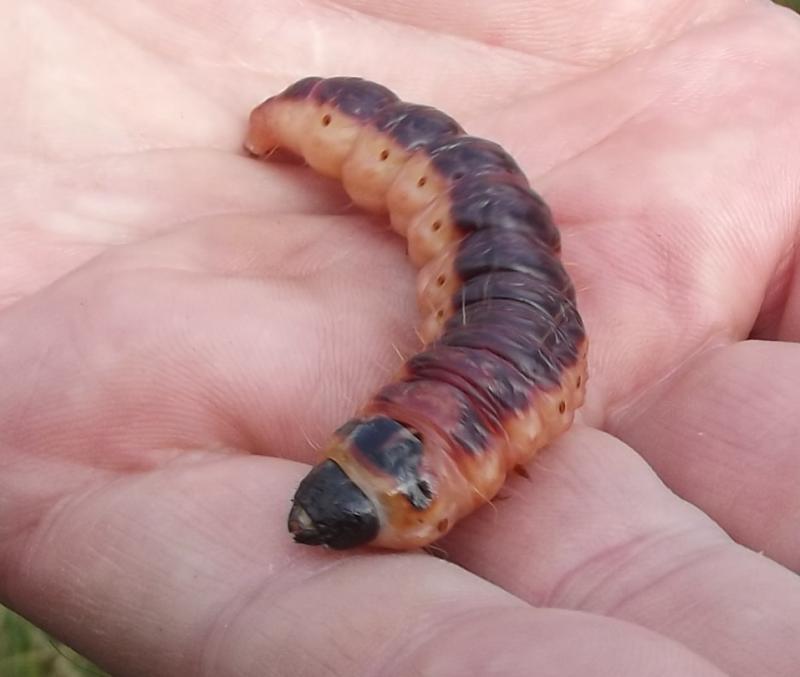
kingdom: Animalia
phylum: Arthropoda
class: Insecta
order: Lepidoptera
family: Cossidae
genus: Cossus
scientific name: Cossus cossus
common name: Goat moth
